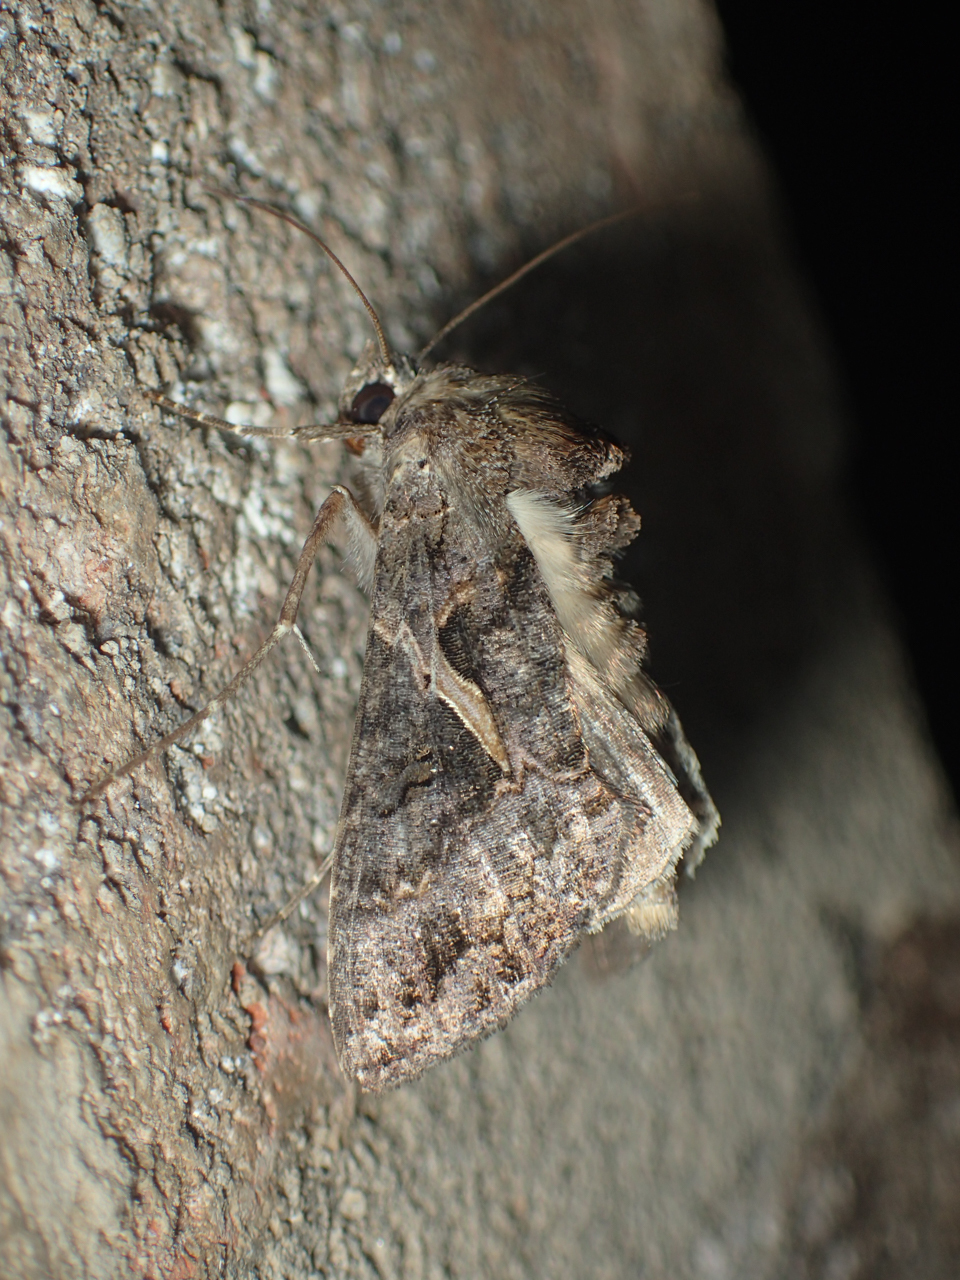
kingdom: Animalia
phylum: Arthropoda
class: Insecta
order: Lepidoptera
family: Noctuidae
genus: Ctenoplusia
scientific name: Ctenoplusia oxygramma
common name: Sharp-stigma looper moth
